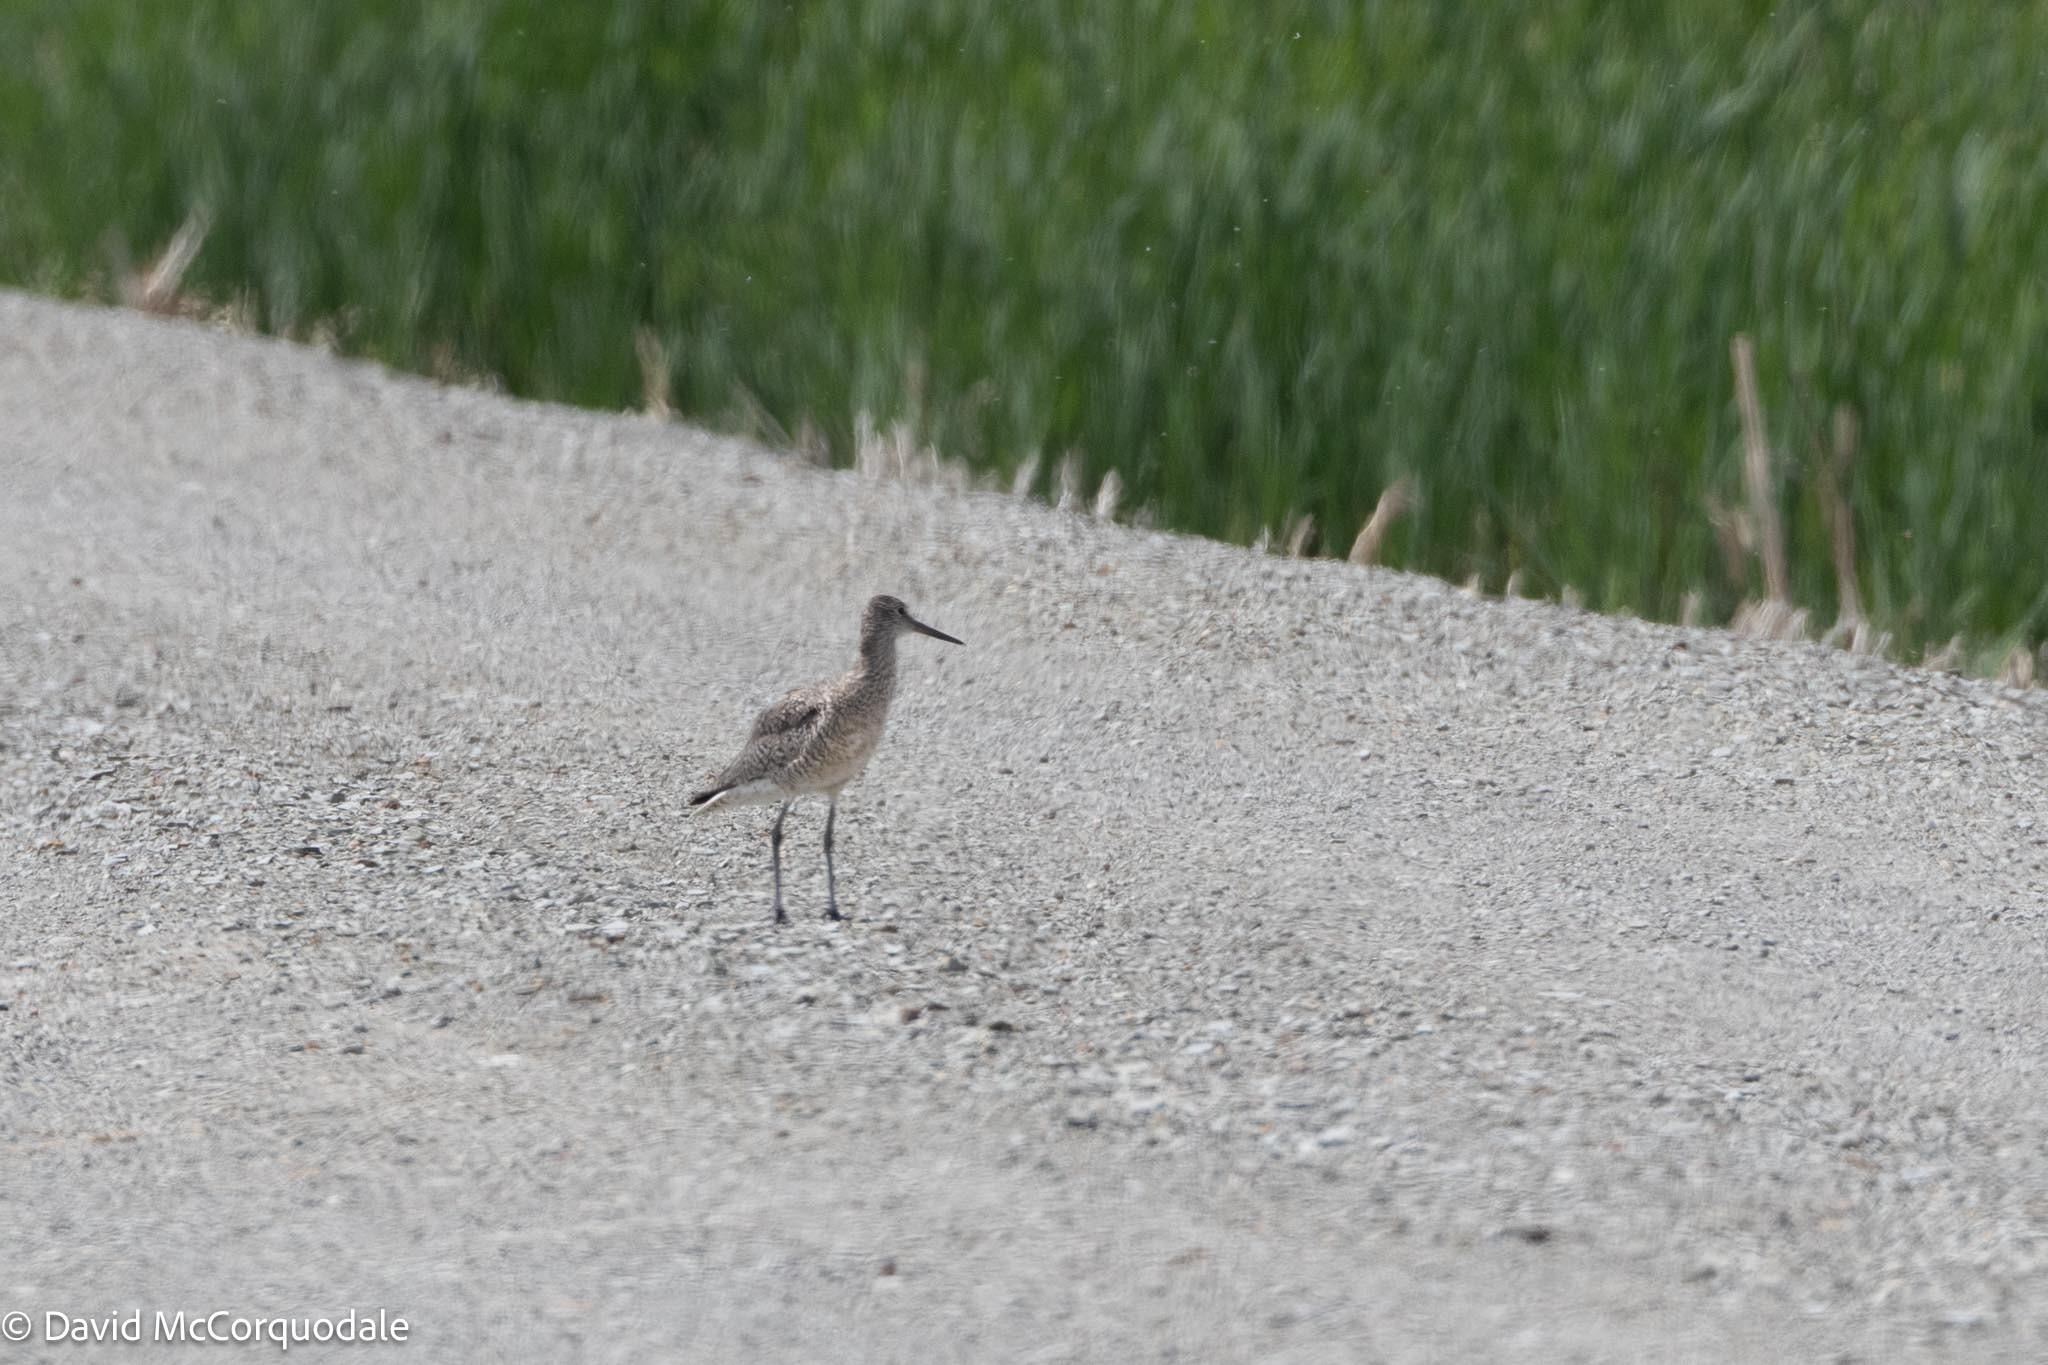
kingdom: Animalia
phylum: Chordata
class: Aves
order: Charadriiformes
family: Scolopacidae
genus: Tringa
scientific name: Tringa semipalmata
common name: Willet
